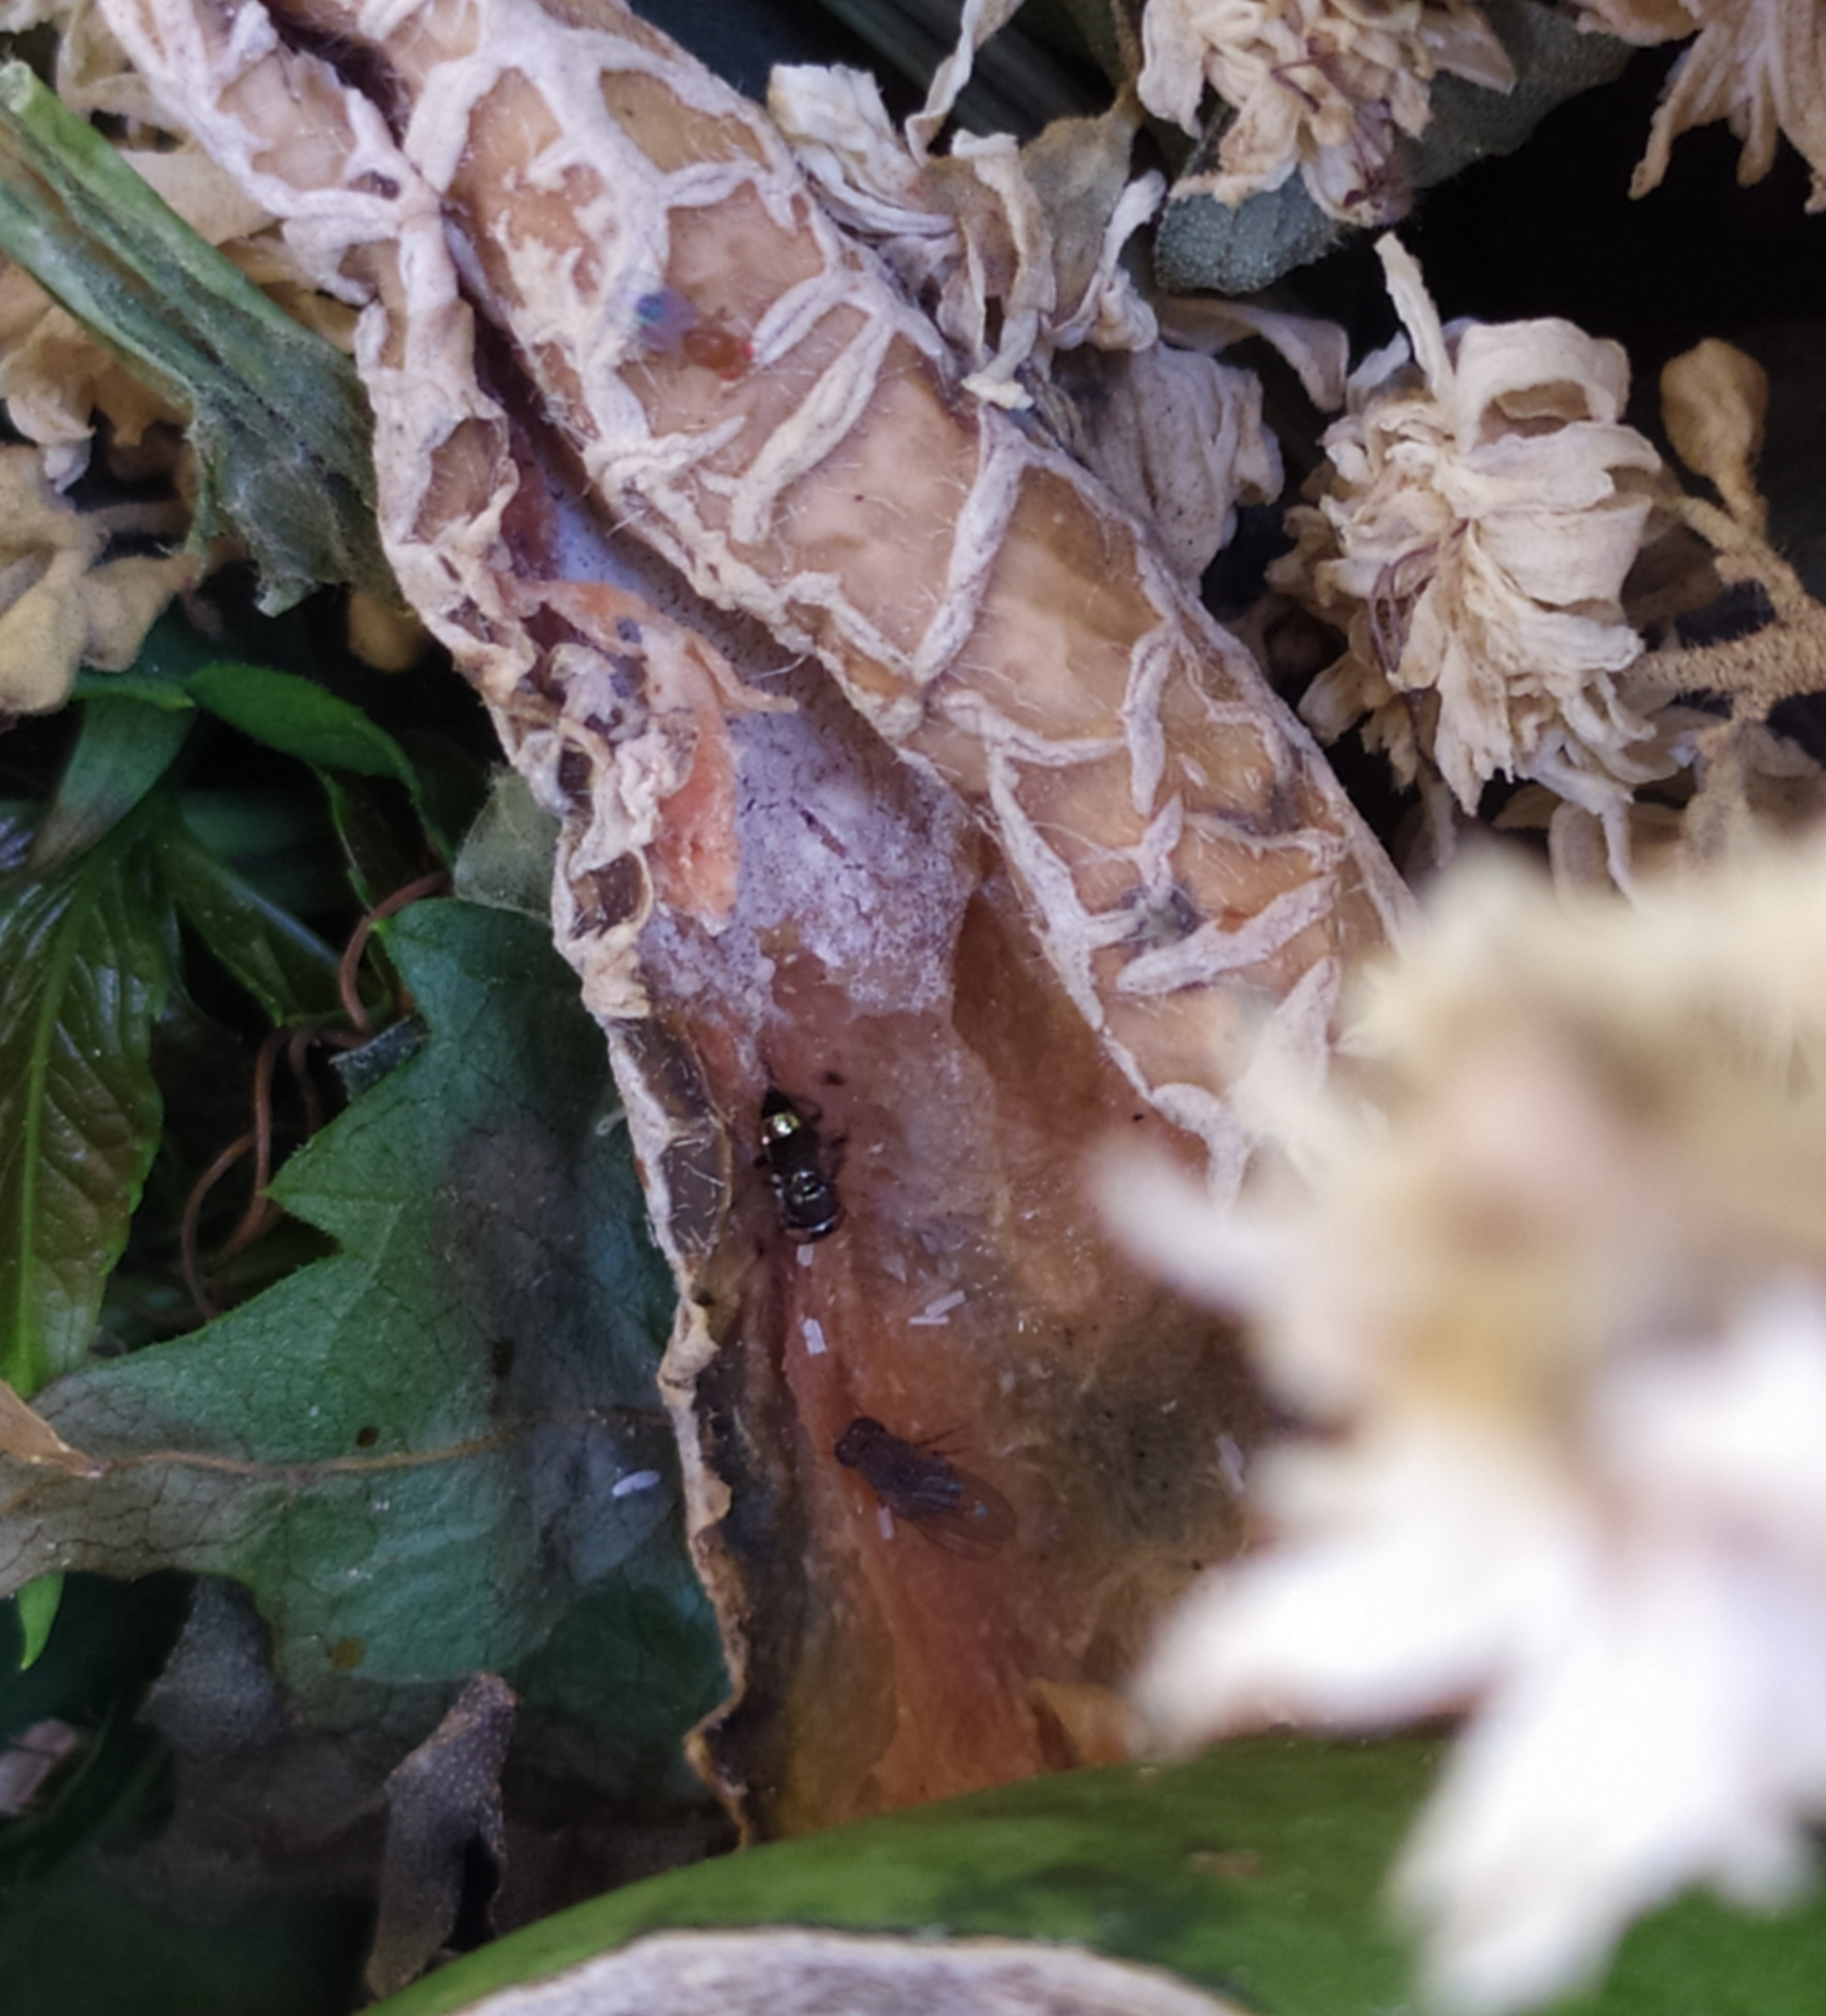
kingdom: Animalia
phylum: Arthropoda
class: Insecta
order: Diptera
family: Ulidiidae
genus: Euxesta
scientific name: Euxesta pechumani
